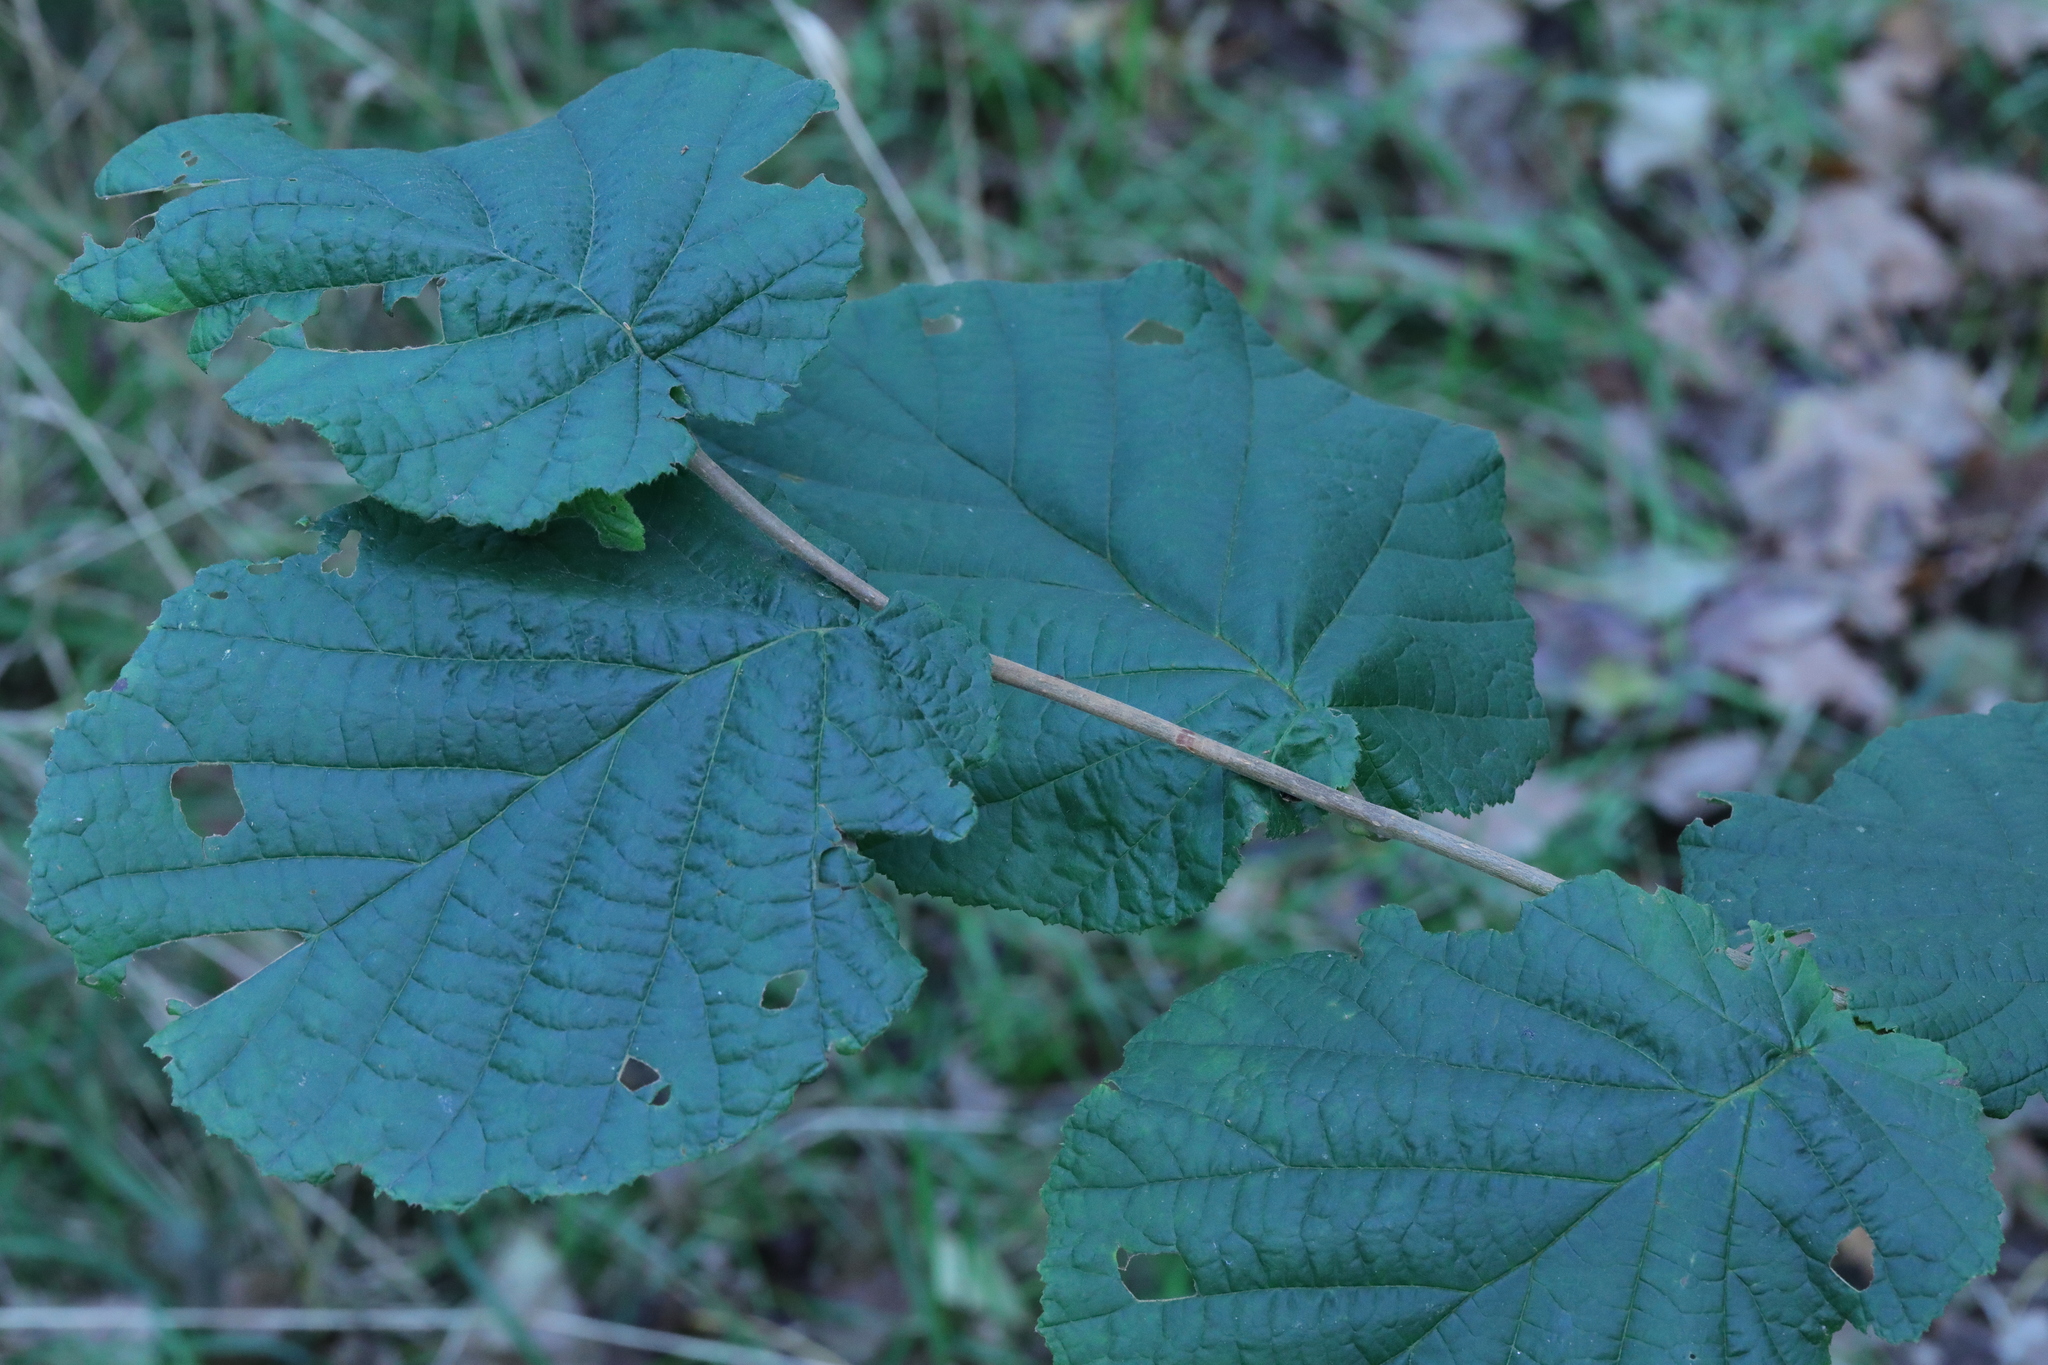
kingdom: Plantae
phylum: Tracheophyta
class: Magnoliopsida
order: Fagales
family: Betulaceae
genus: Corylus
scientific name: Corylus avellana
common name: European hazel
